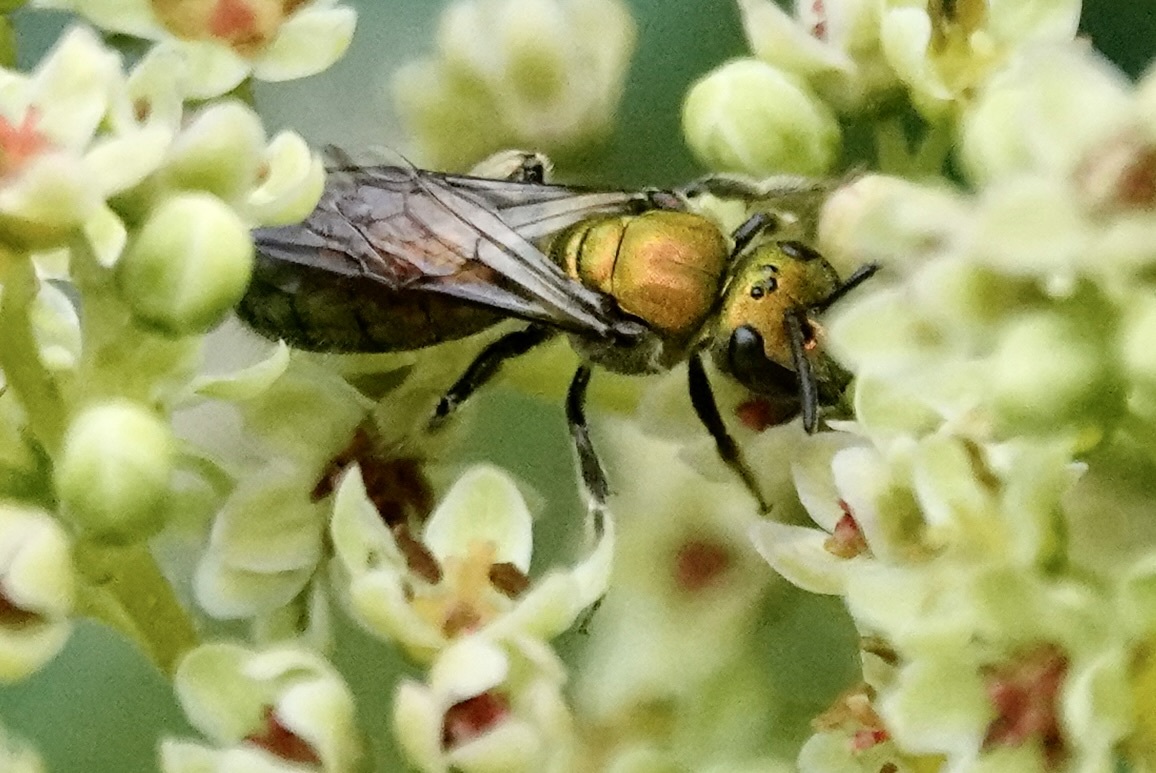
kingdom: Animalia
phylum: Arthropoda
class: Insecta
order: Hymenoptera
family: Halictidae
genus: Augochlora
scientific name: Augochlora pura
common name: Pure green sweat bee
